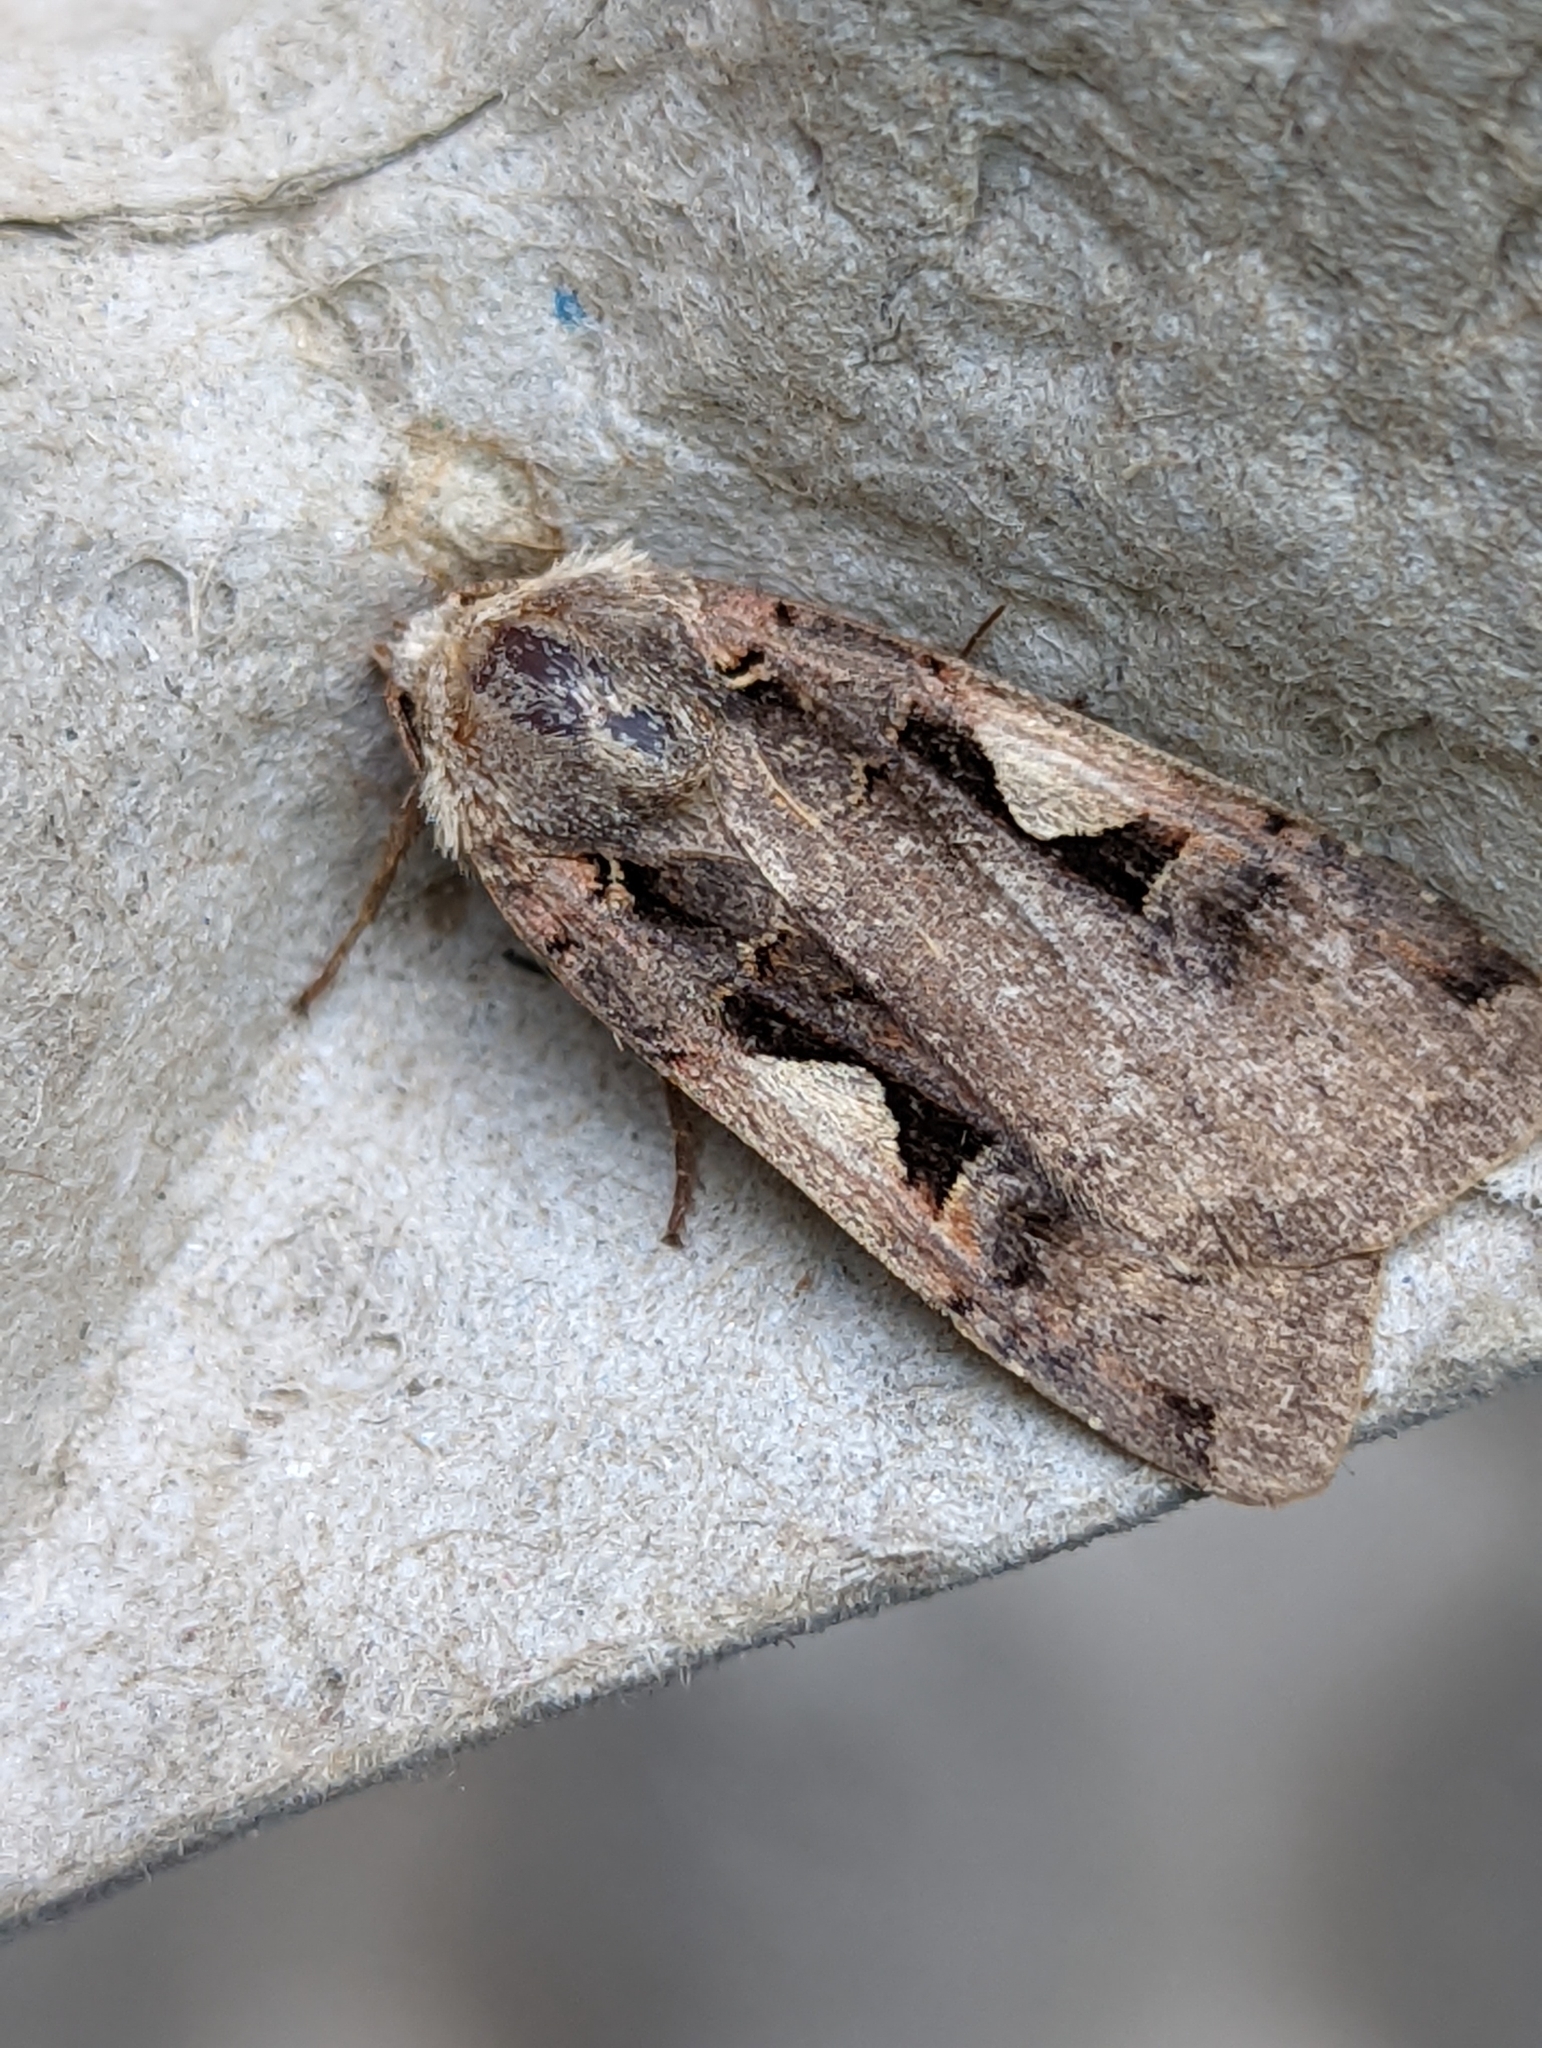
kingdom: Animalia
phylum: Arthropoda
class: Insecta
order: Lepidoptera
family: Noctuidae
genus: Xestia
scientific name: Xestia c-nigrum
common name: Setaceous hebrew character
